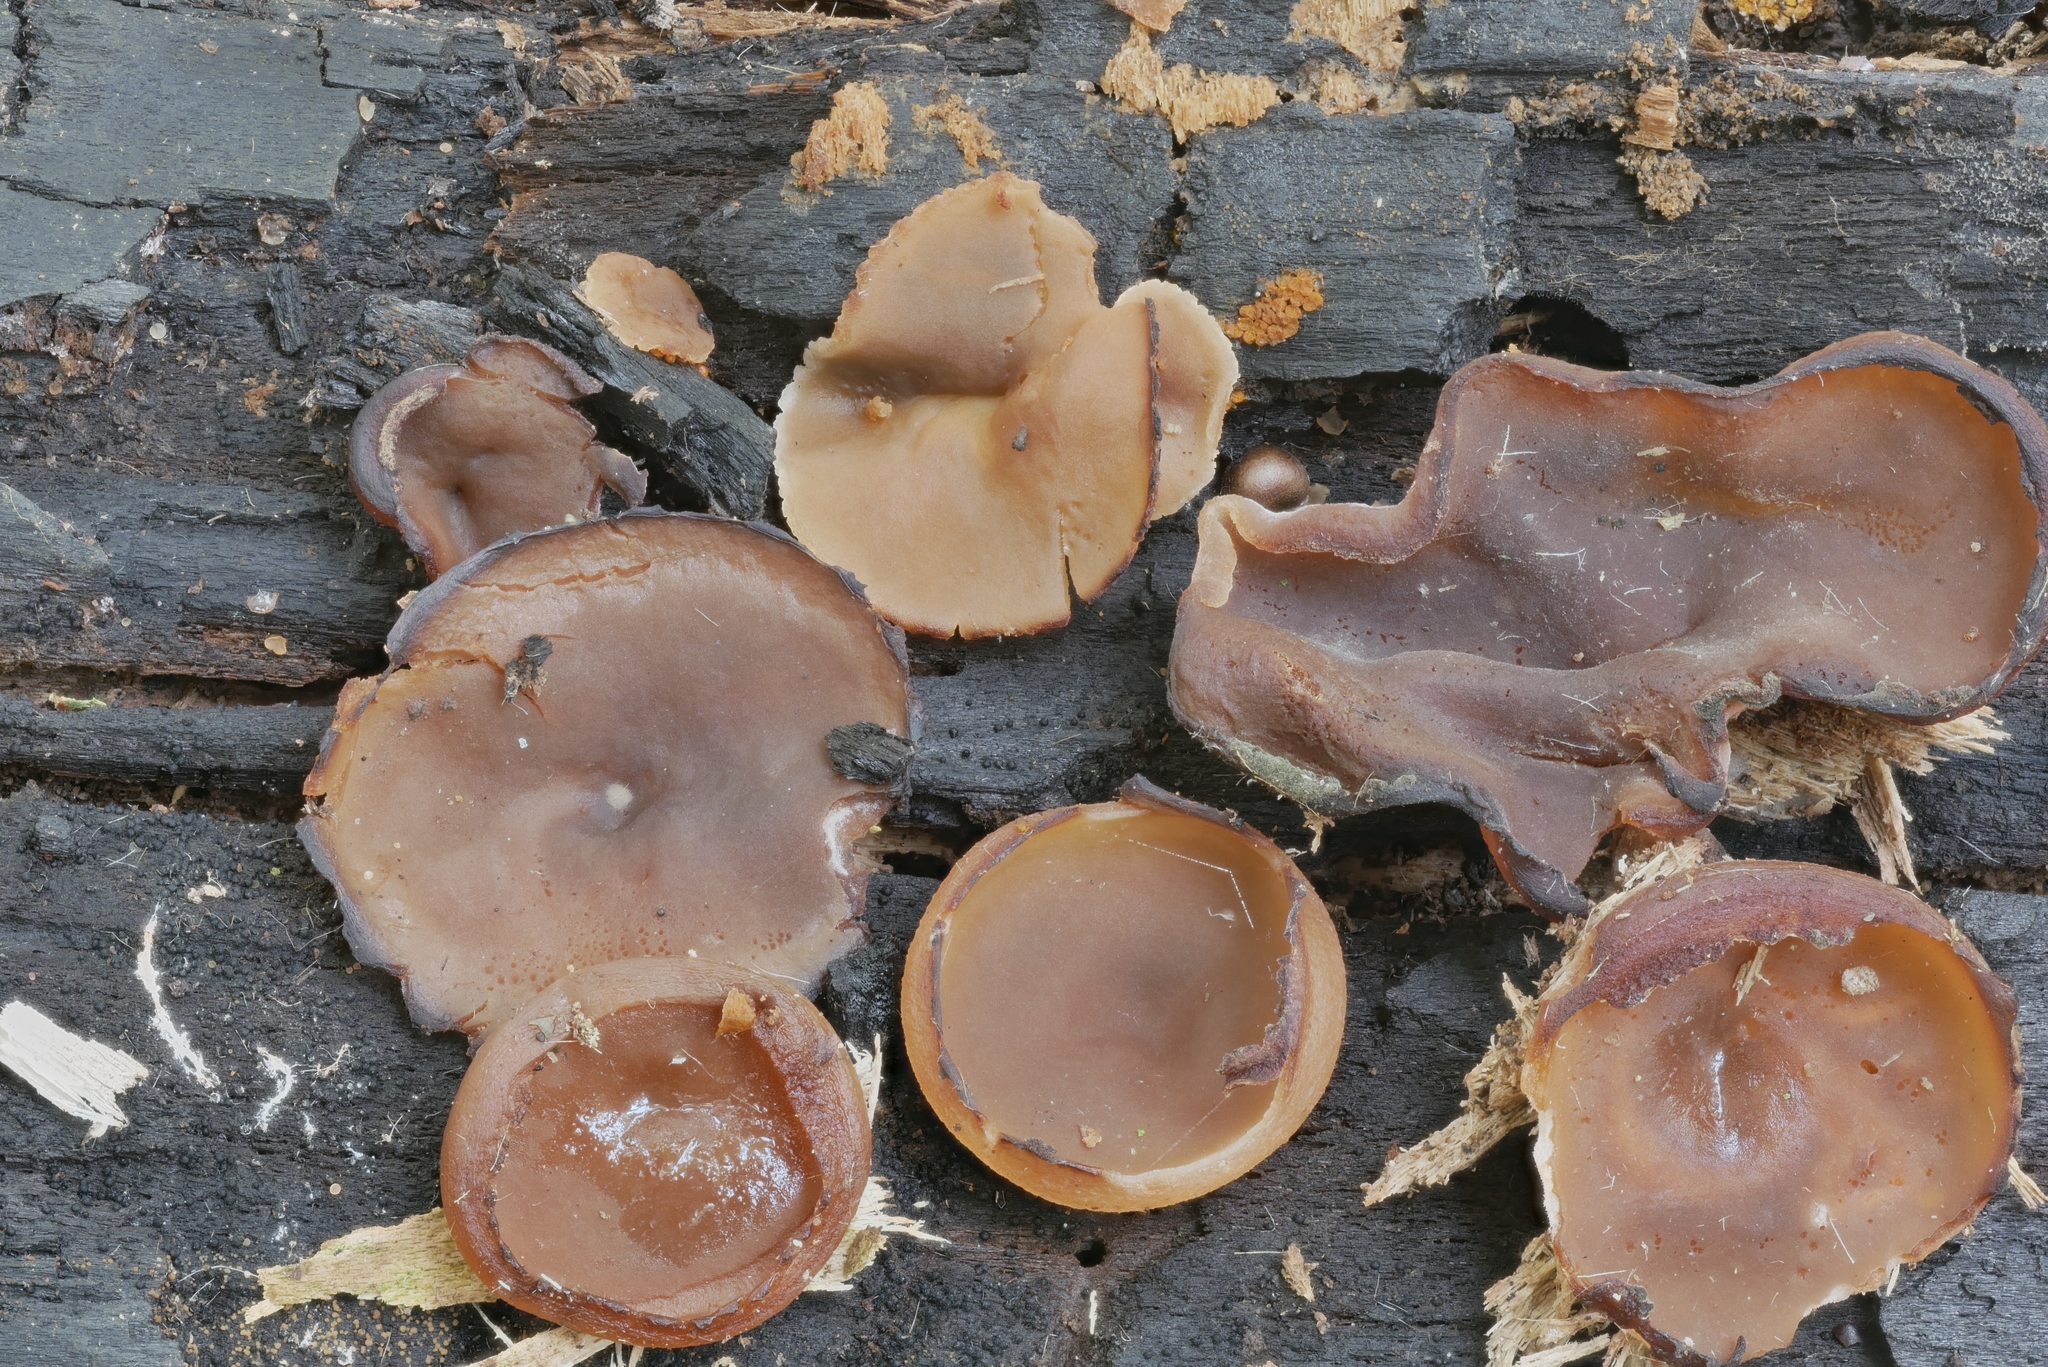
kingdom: Fungi
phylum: Ascomycota
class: Pezizomycetes
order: Pezizales
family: Pezizaceae
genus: Peziza
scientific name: Peziza varia
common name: Layered cup
